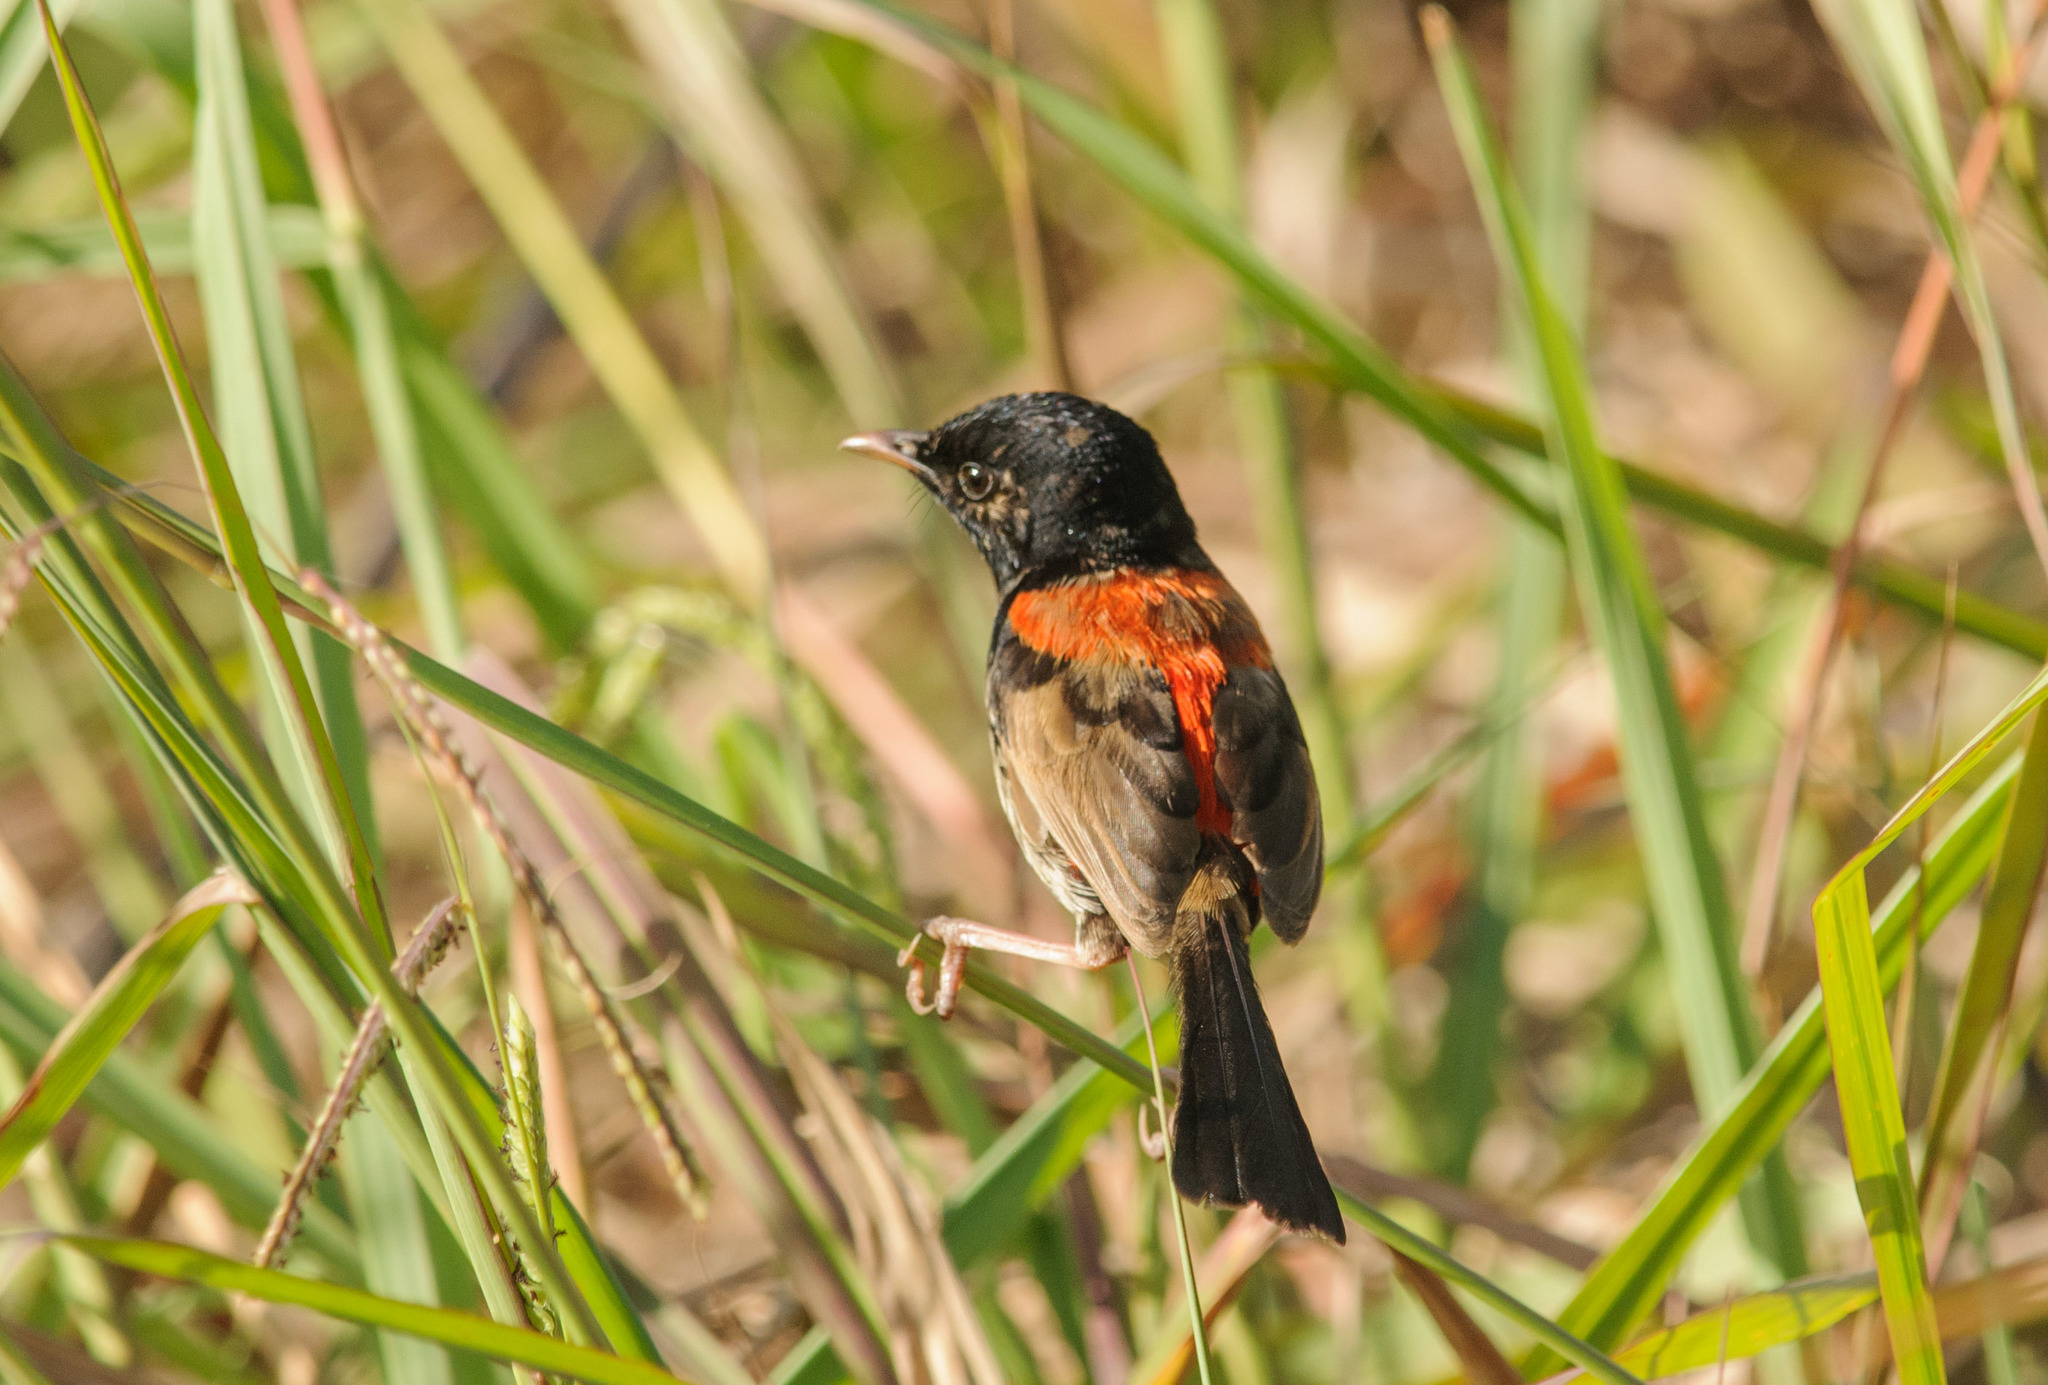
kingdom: Animalia
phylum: Chordata
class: Aves
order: Passeriformes
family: Maluridae
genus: Malurus
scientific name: Malurus melanocephalus
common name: Red-backed fairywren
